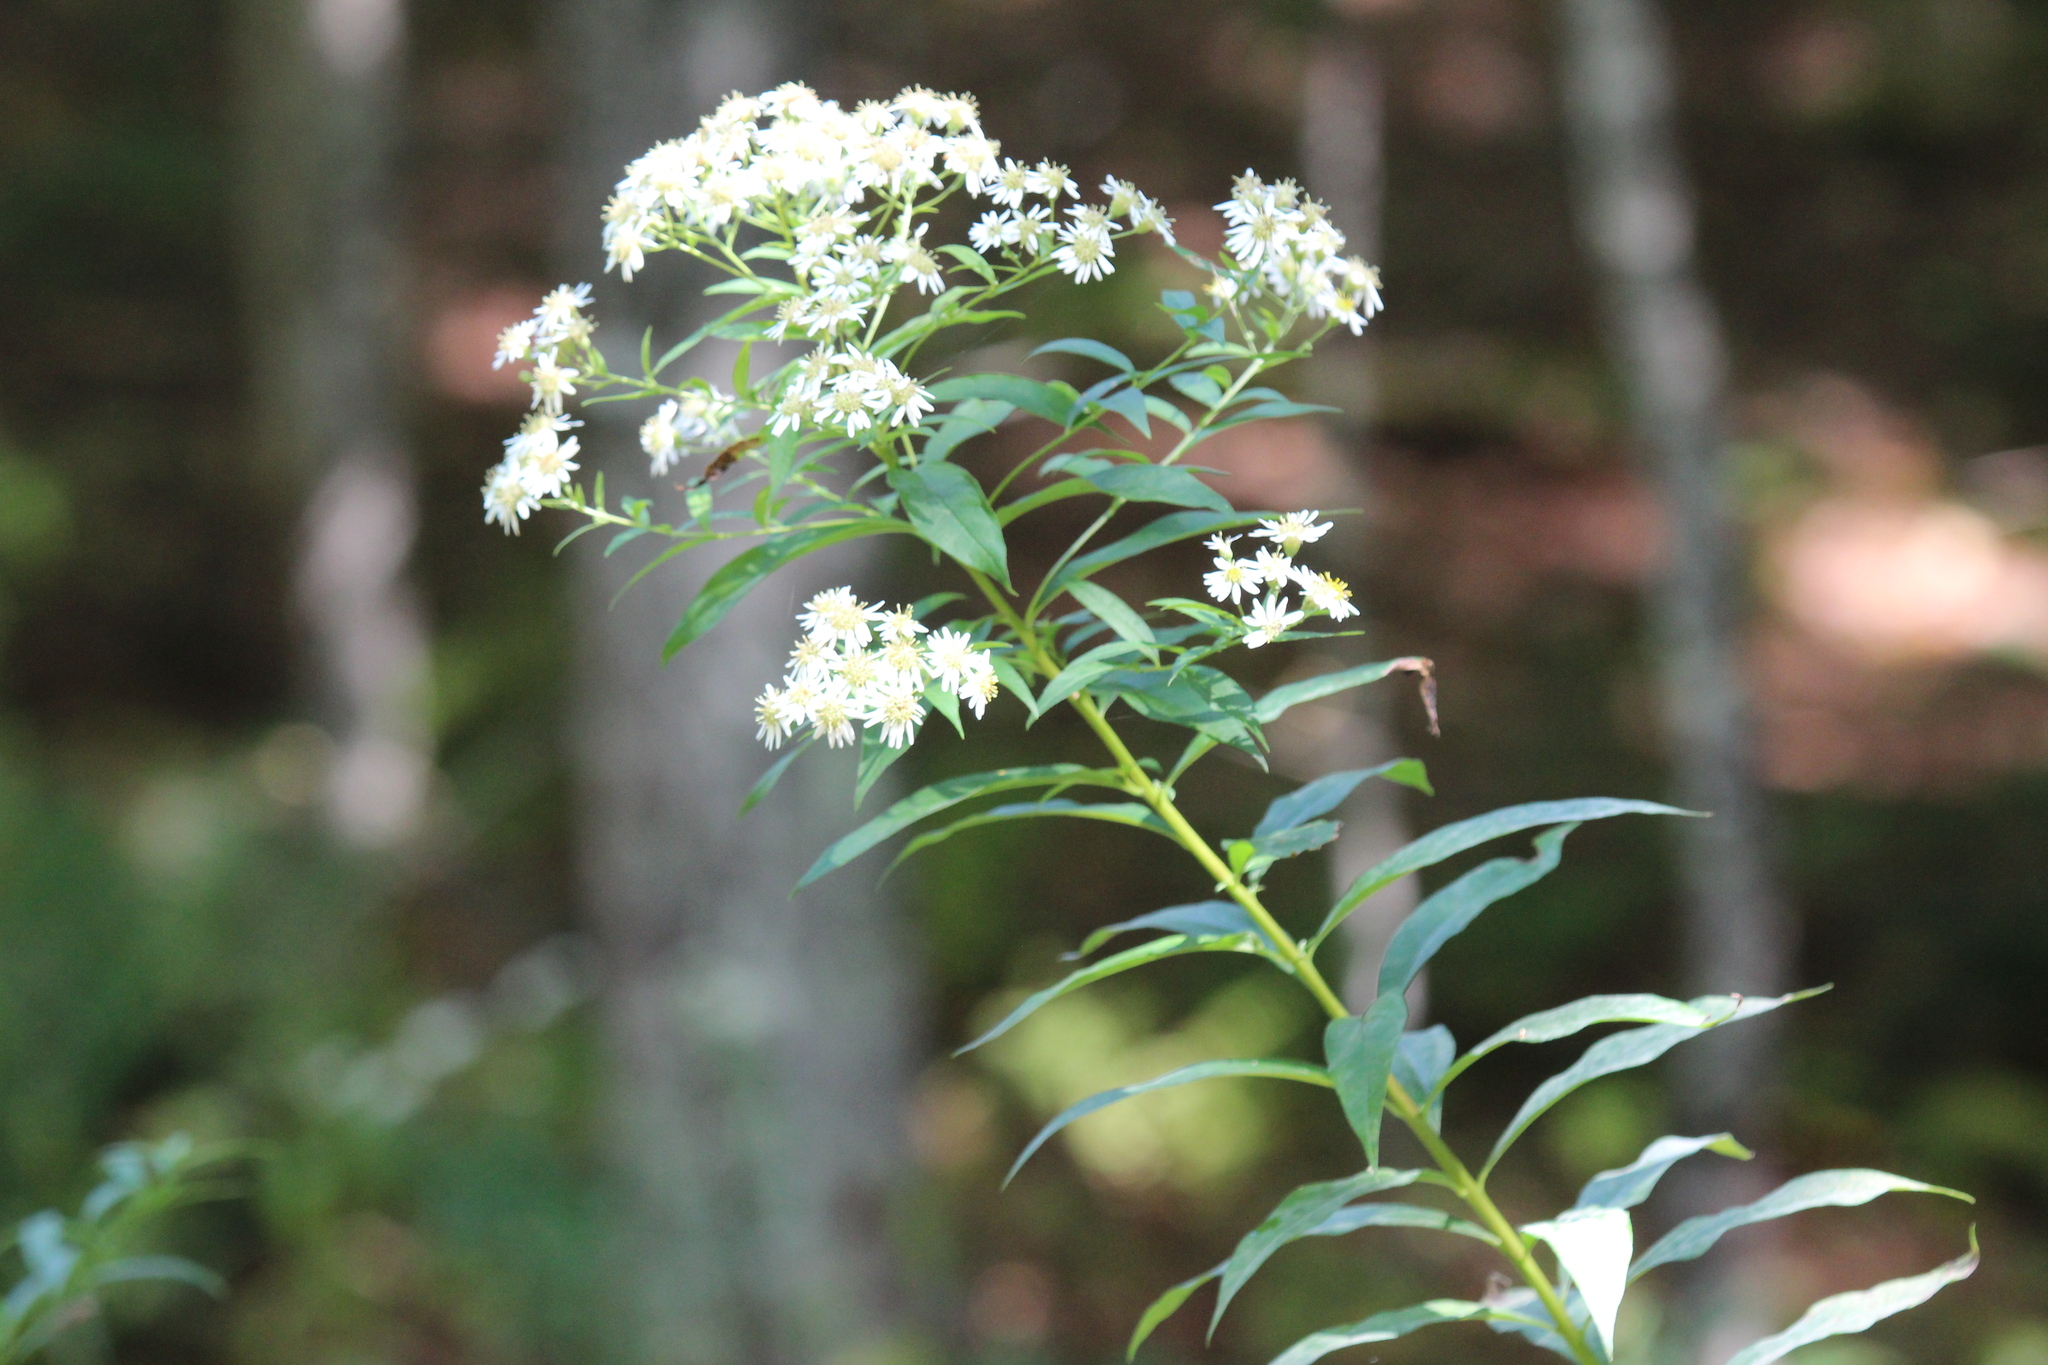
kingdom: Plantae
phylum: Tracheophyta
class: Magnoliopsida
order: Asterales
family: Asteraceae
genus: Doellingeria
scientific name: Doellingeria umbellata
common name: Flat-top white aster
